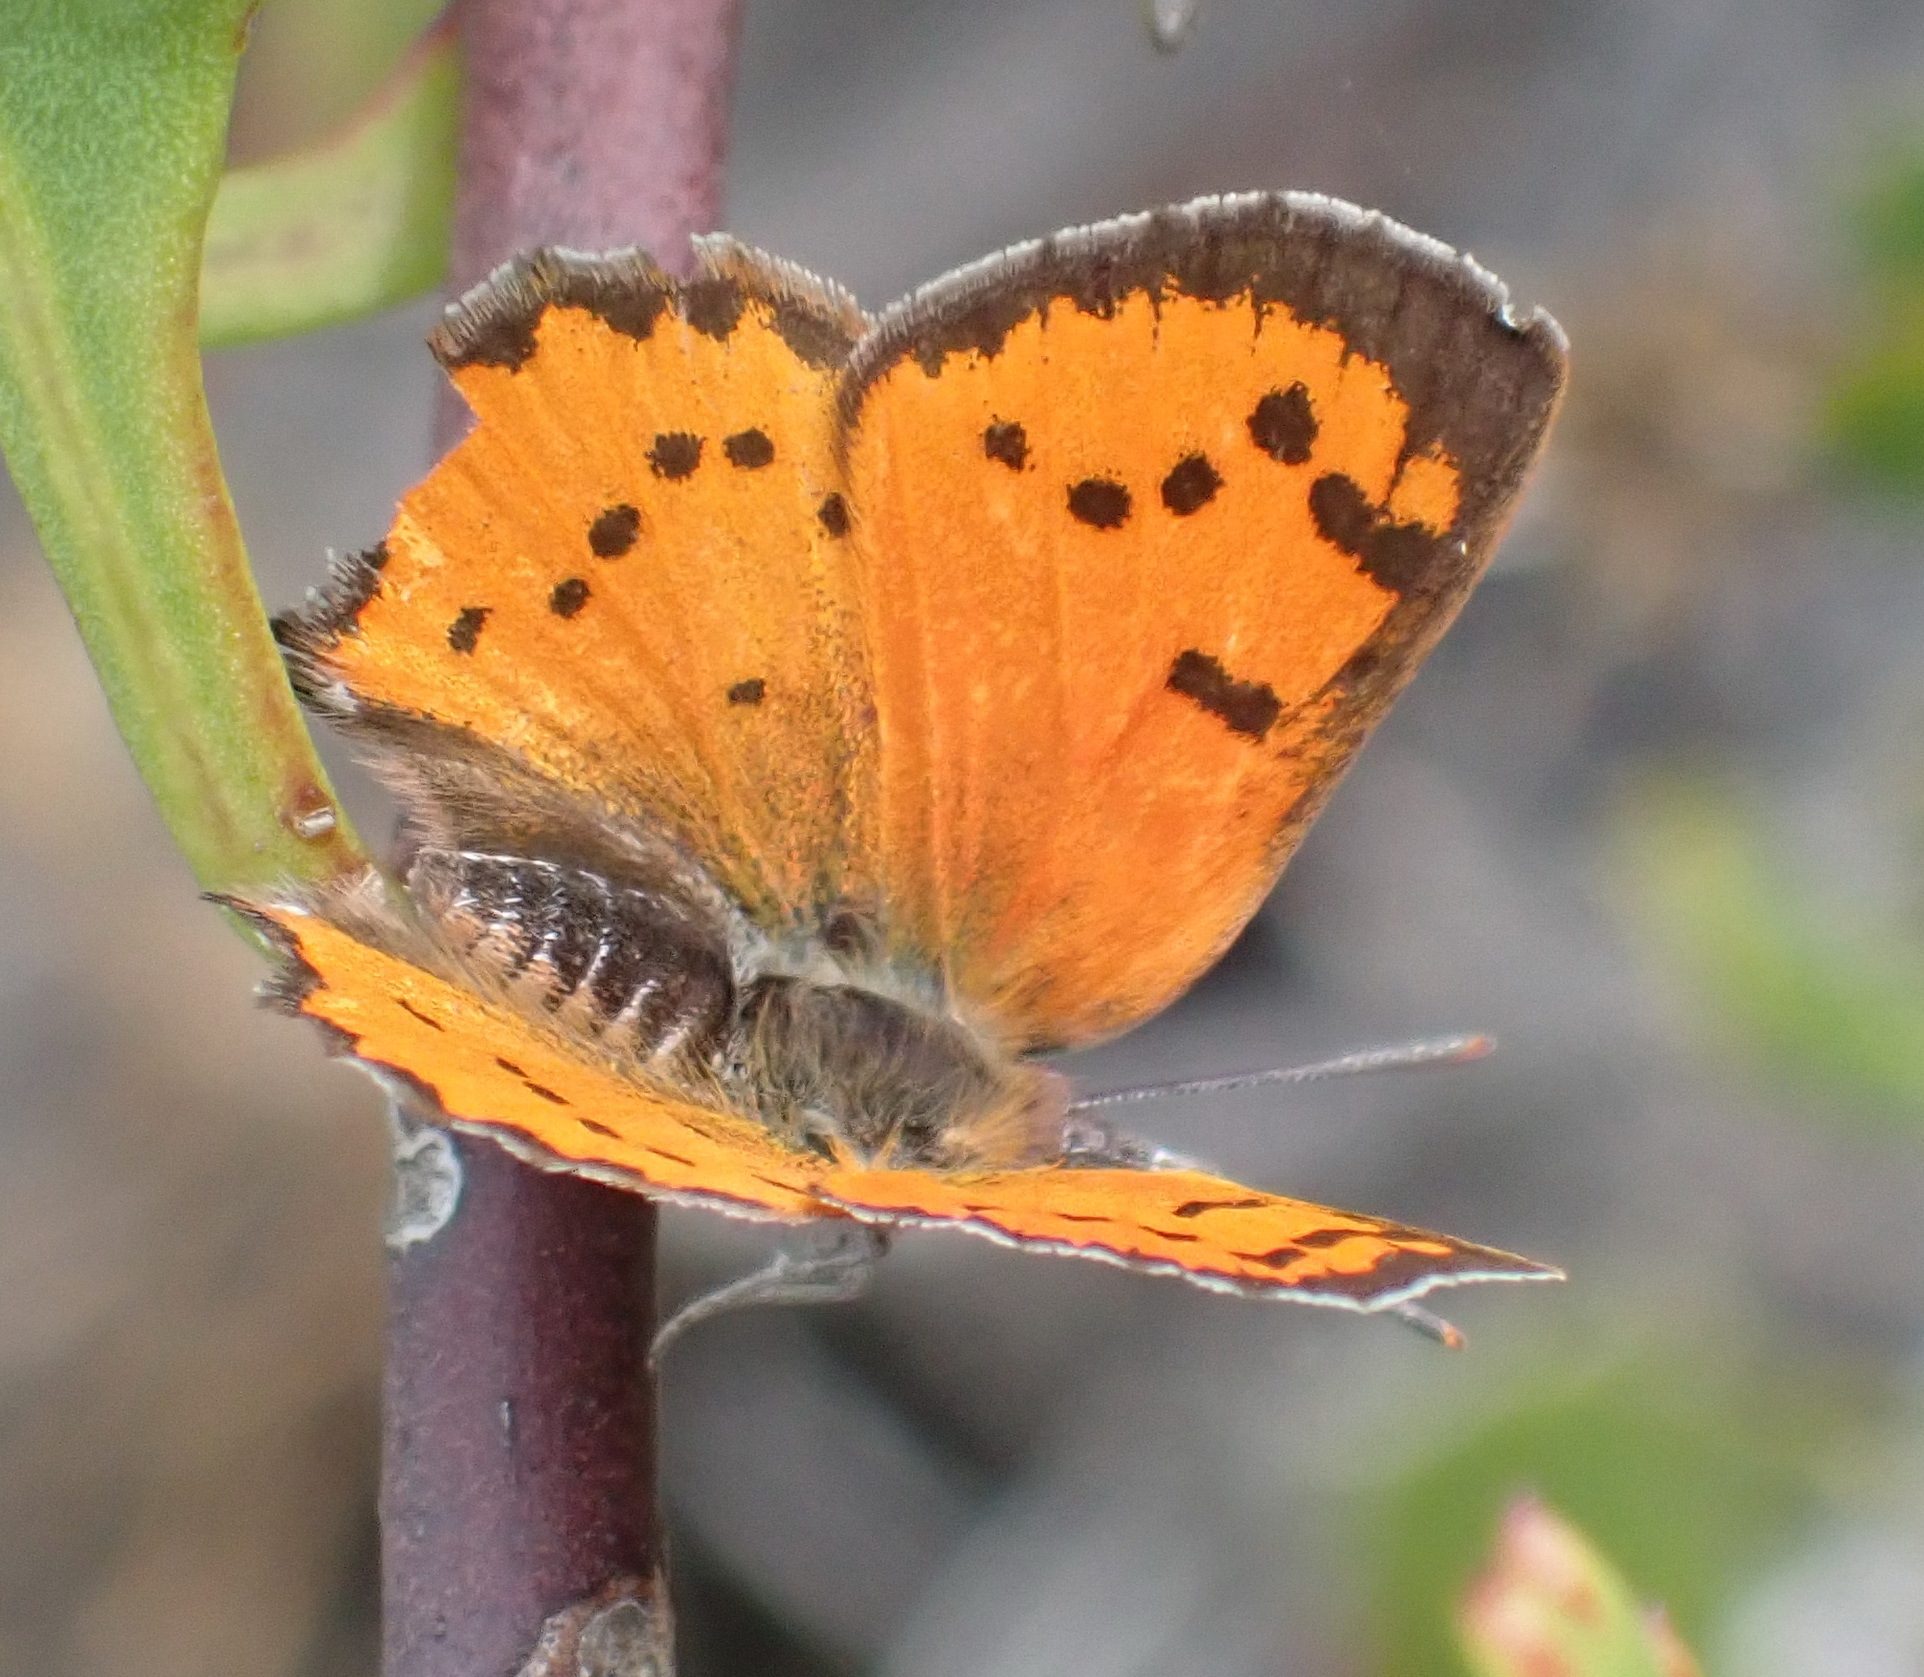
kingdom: Animalia
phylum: Arthropoda
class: Insecta
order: Lepidoptera
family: Lycaenidae
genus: Zeritis
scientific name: Zeritis chrysaor
